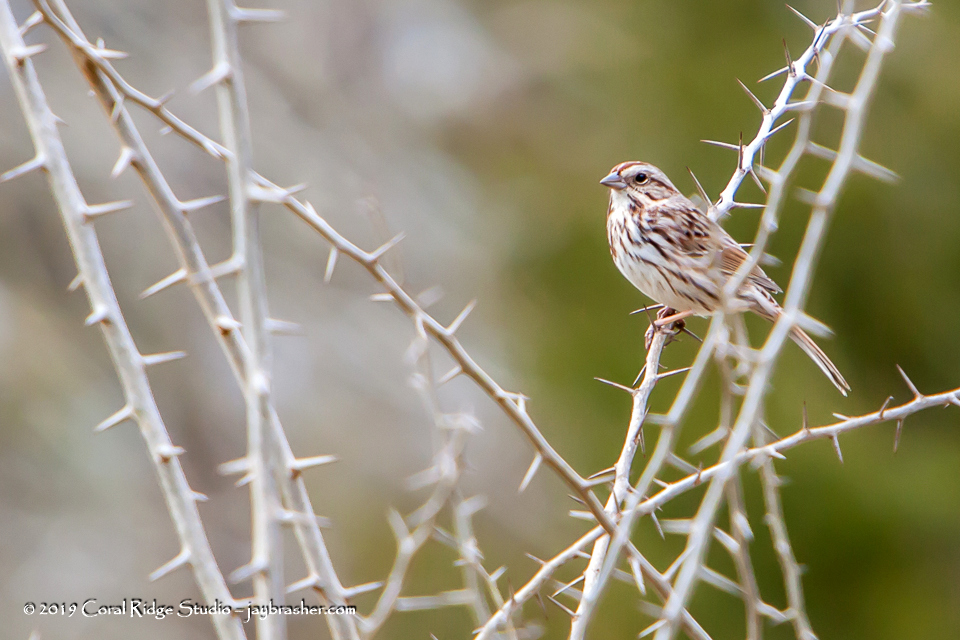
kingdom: Animalia
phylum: Chordata
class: Aves
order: Passeriformes
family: Passerellidae
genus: Melospiza
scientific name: Melospiza melodia
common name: Song sparrow
